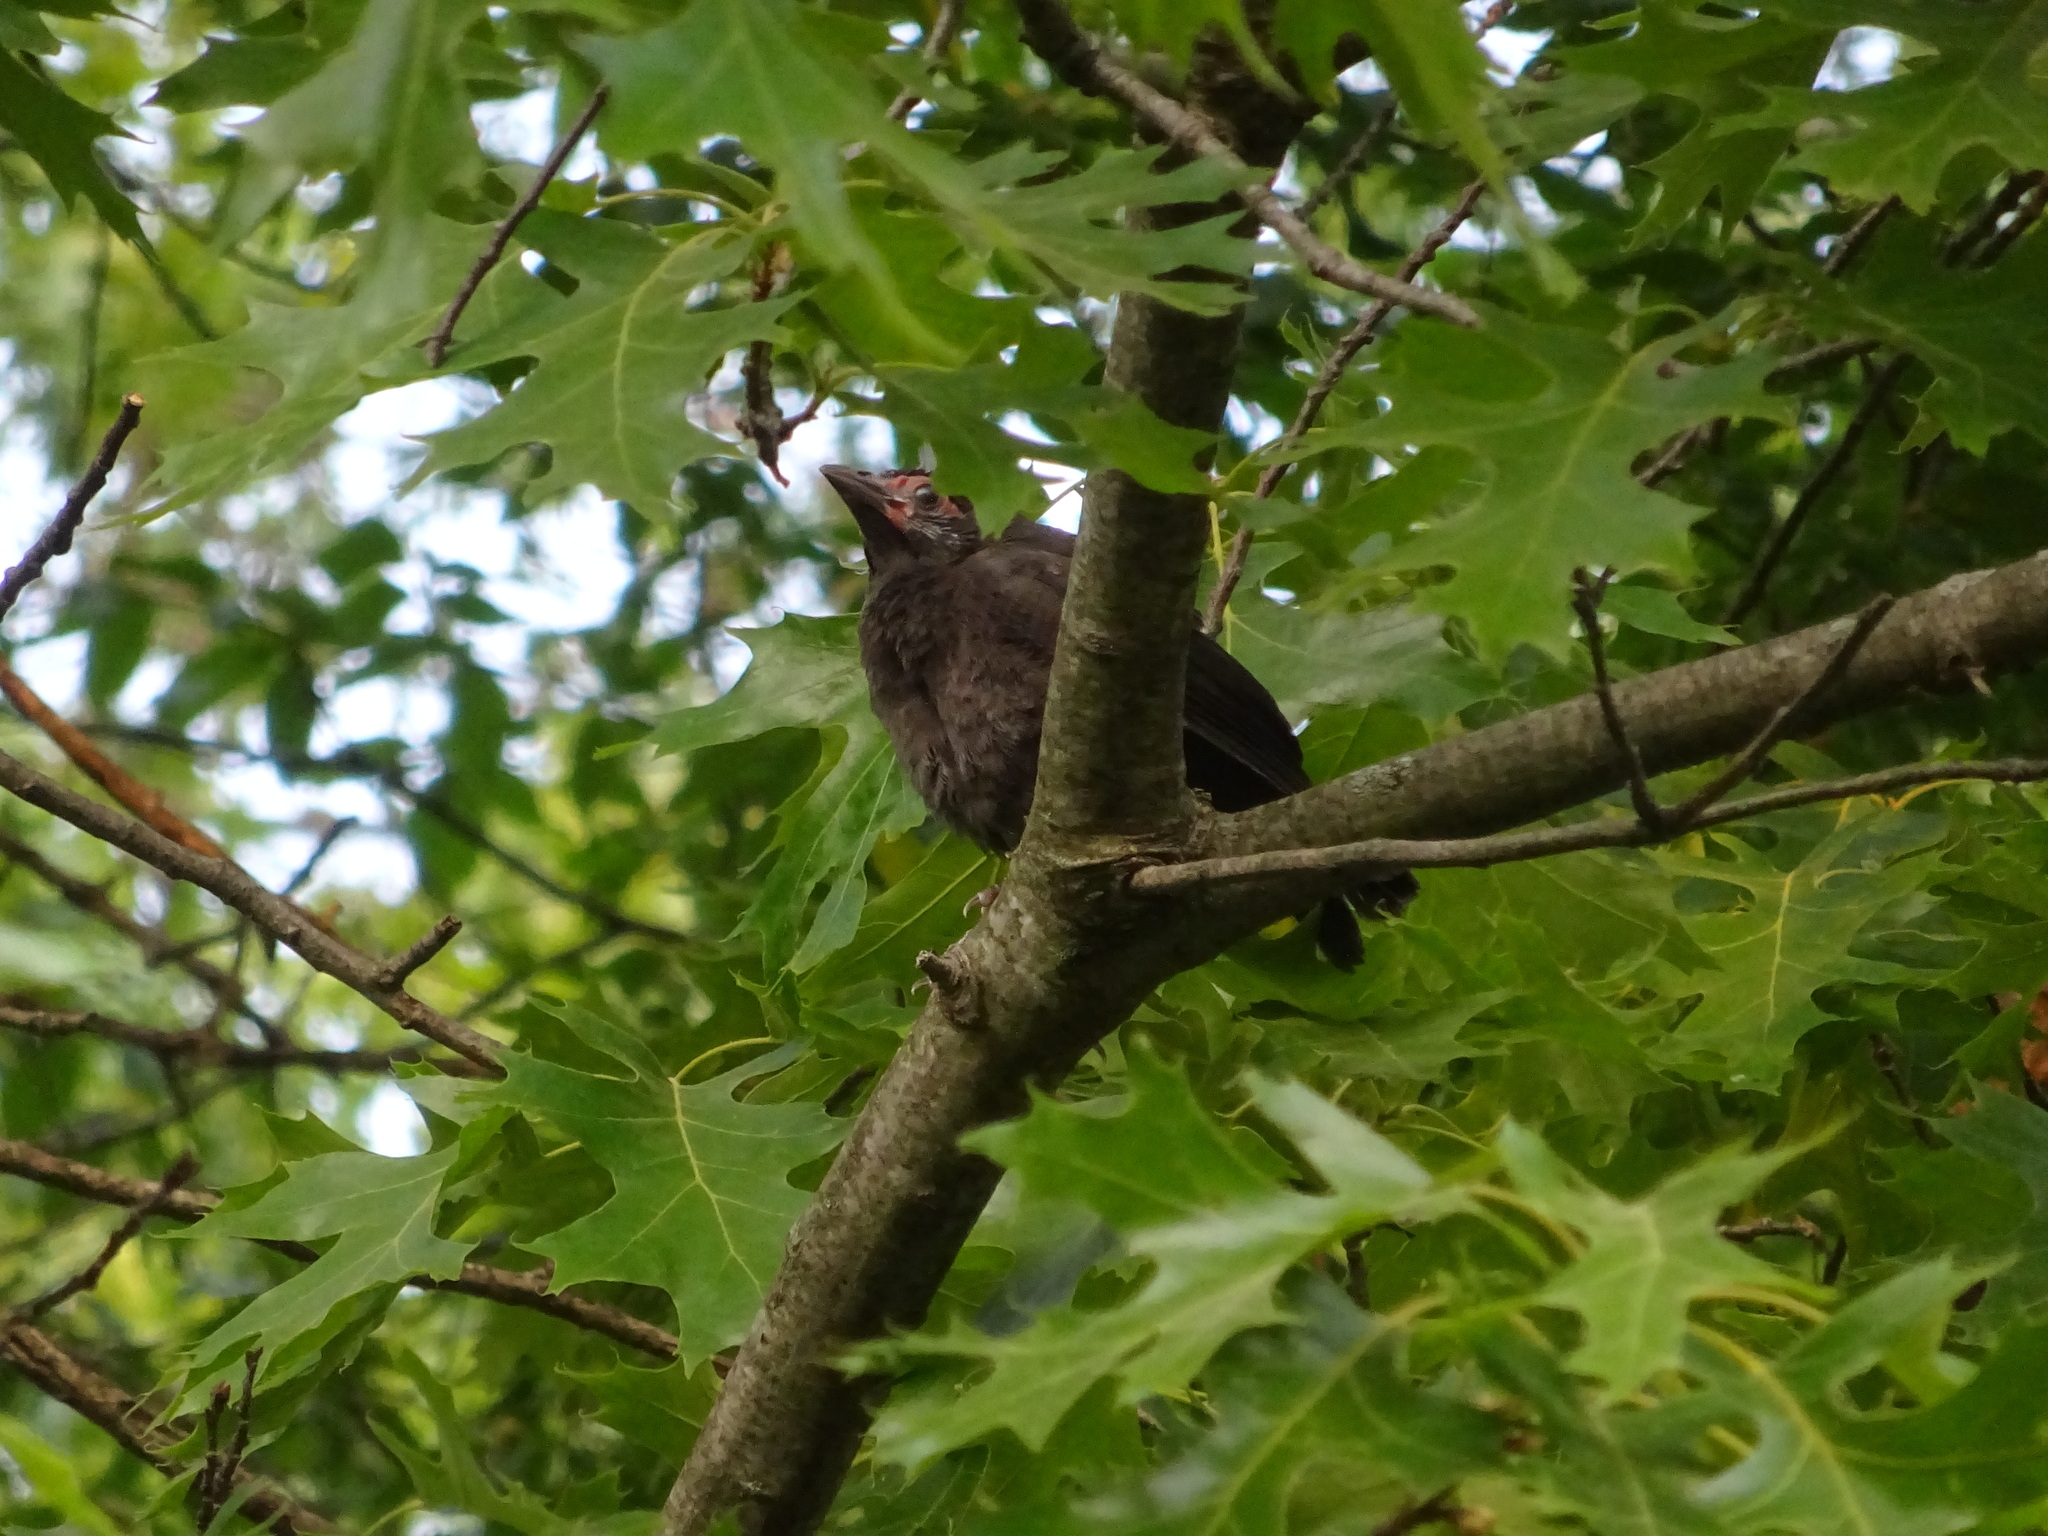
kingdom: Animalia
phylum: Chordata
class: Aves
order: Passeriformes
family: Icteridae
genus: Quiscalus
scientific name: Quiscalus quiscula
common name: Common grackle
